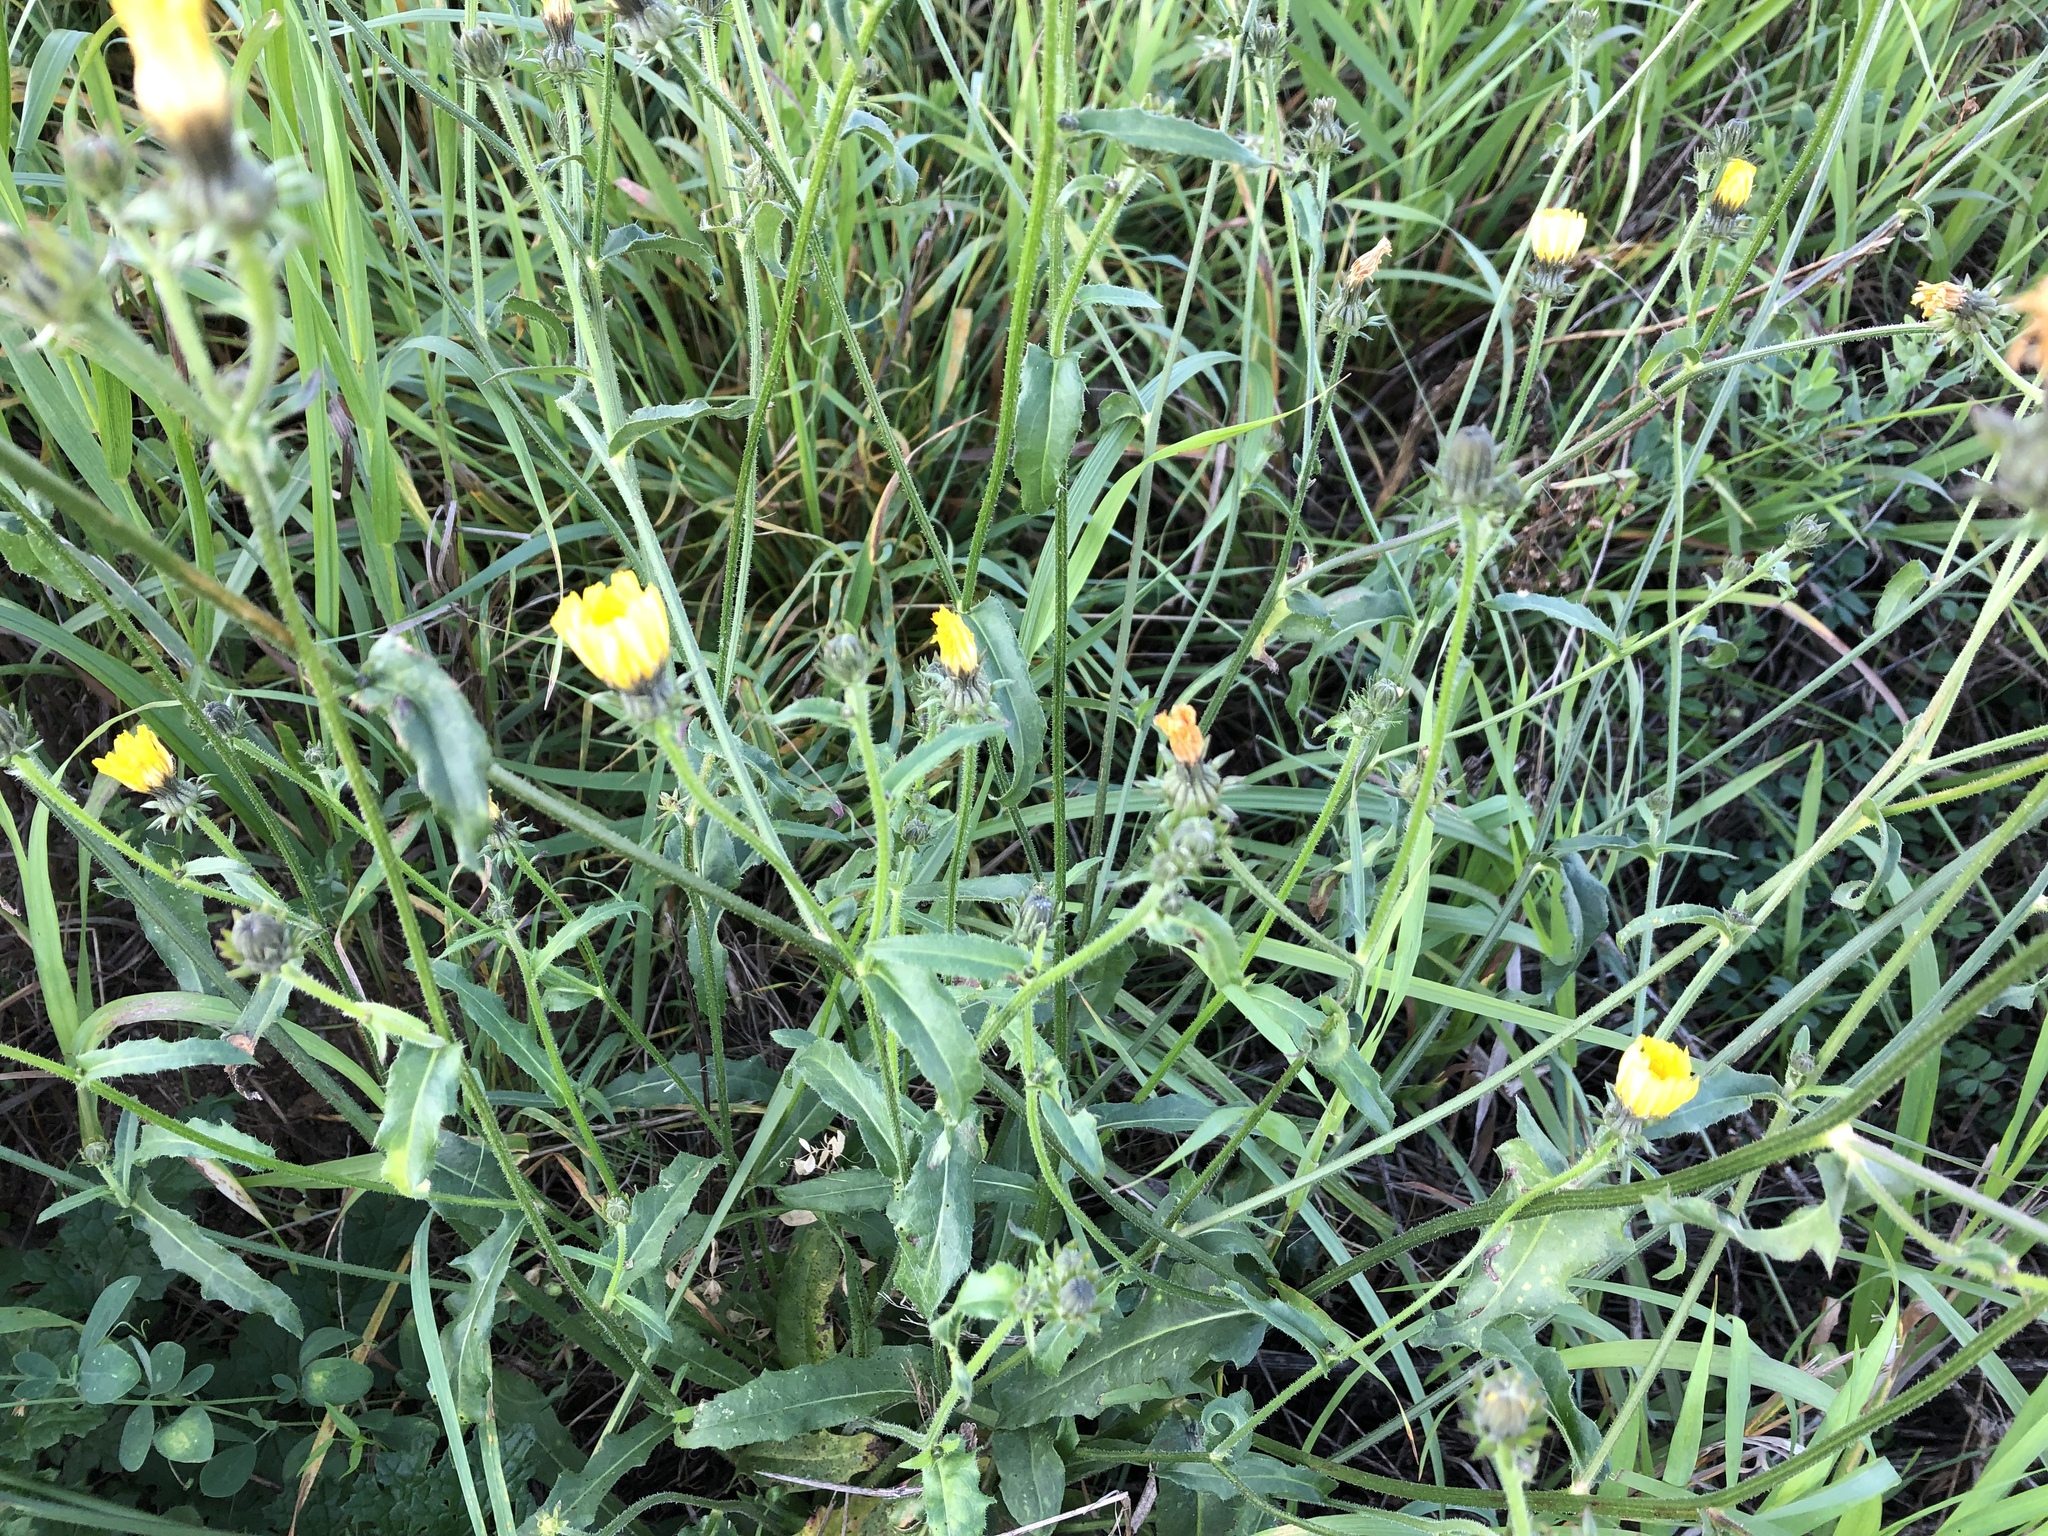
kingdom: Plantae
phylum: Tracheophyta
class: Magnoliopsida
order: Asterales
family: Asteraceae
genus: Picris
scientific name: Picris hieracioides
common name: Hawkweed oxtongue
